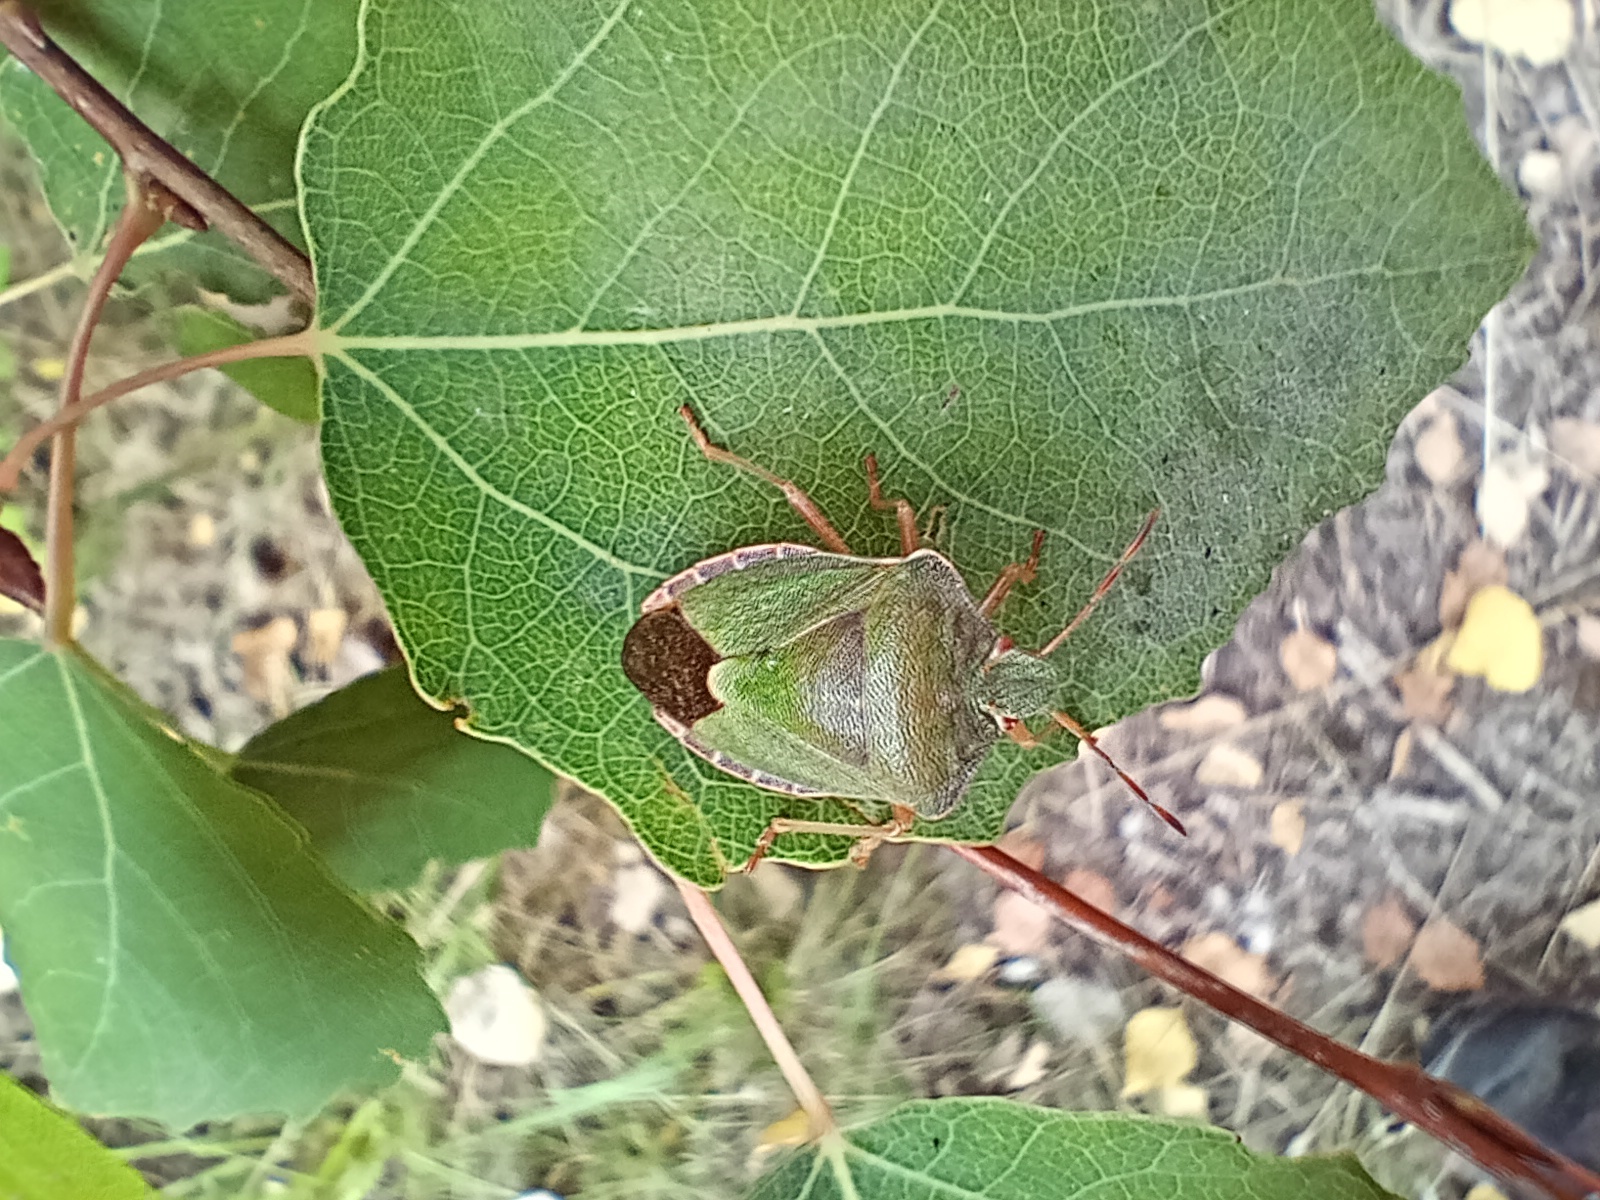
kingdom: Animalia
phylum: Arthropoda
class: Insecta
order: Hemiptera
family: Pentatomidae
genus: Palomena
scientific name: Palomena prasina
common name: Green shieldbug
